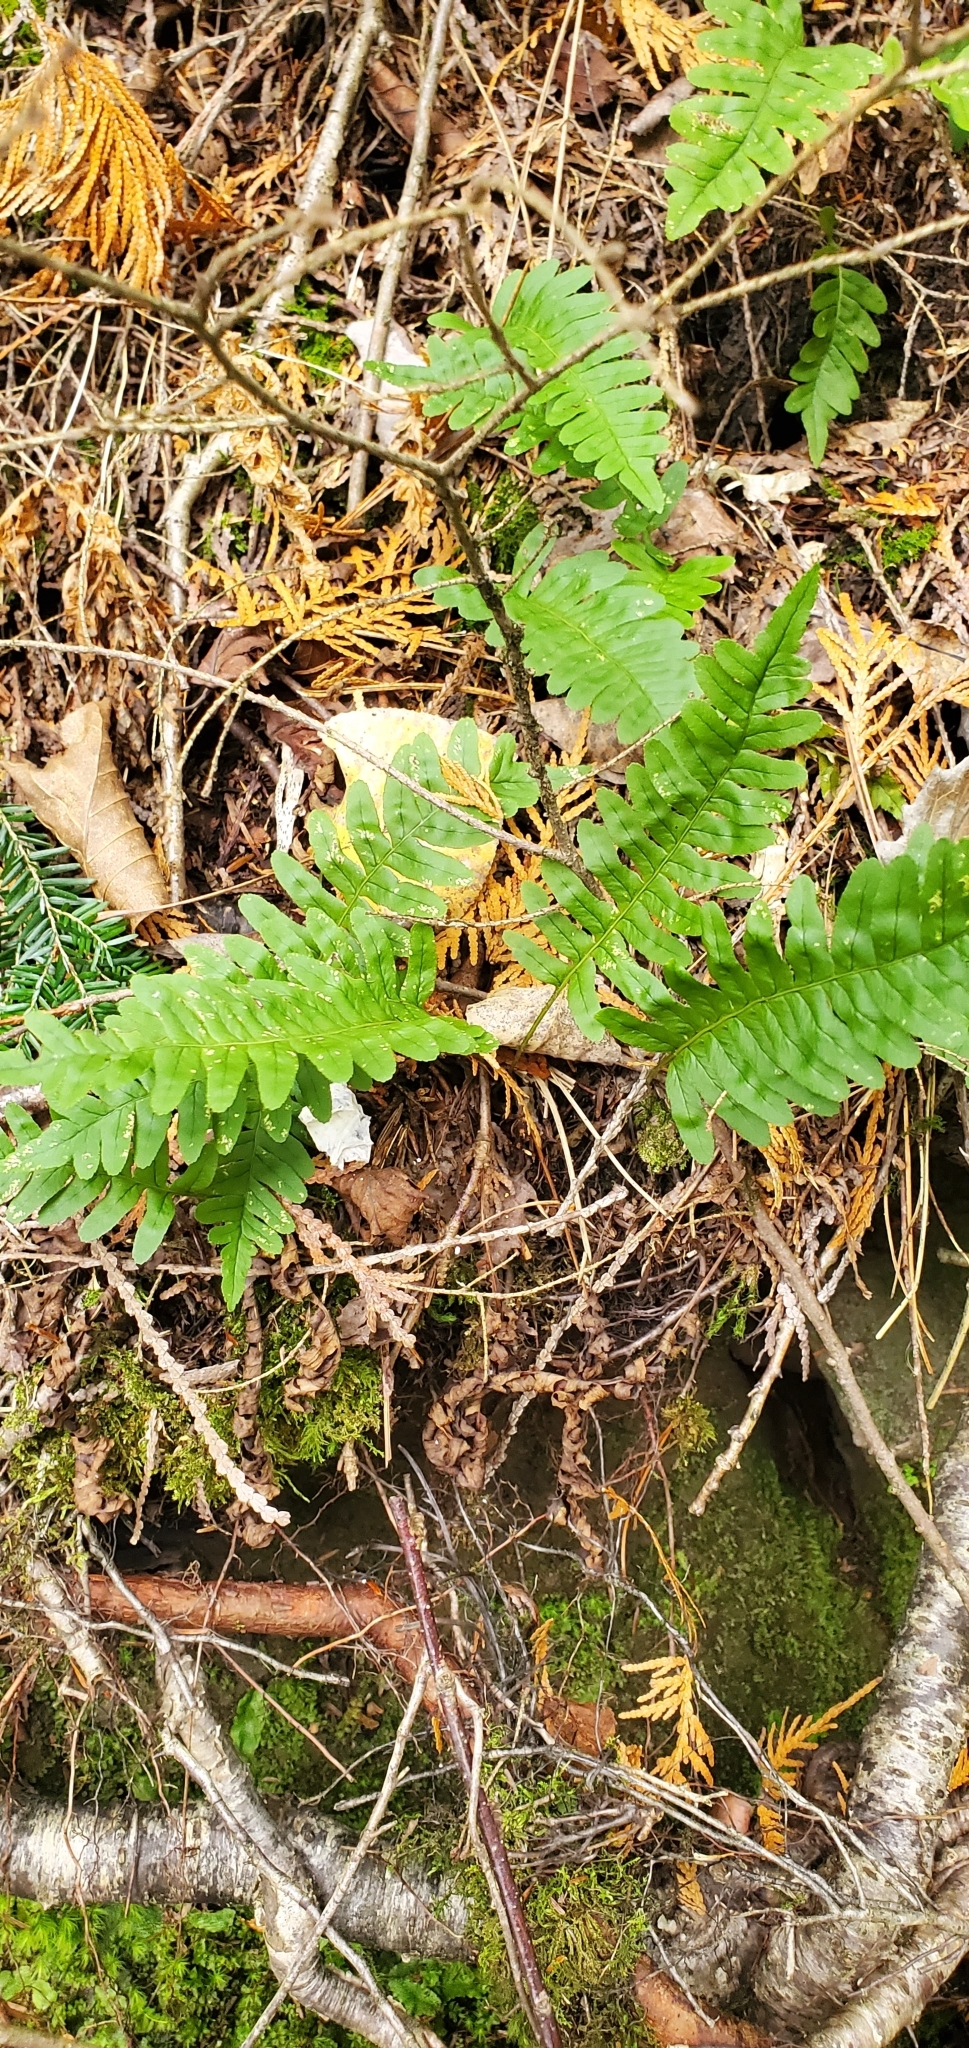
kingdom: Plantae
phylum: Tracheophyta
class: Polypodiopsida
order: Polypodiales
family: Polypodiaceae
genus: Polypodium
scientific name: Polypodium virginianum
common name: American wall fern
